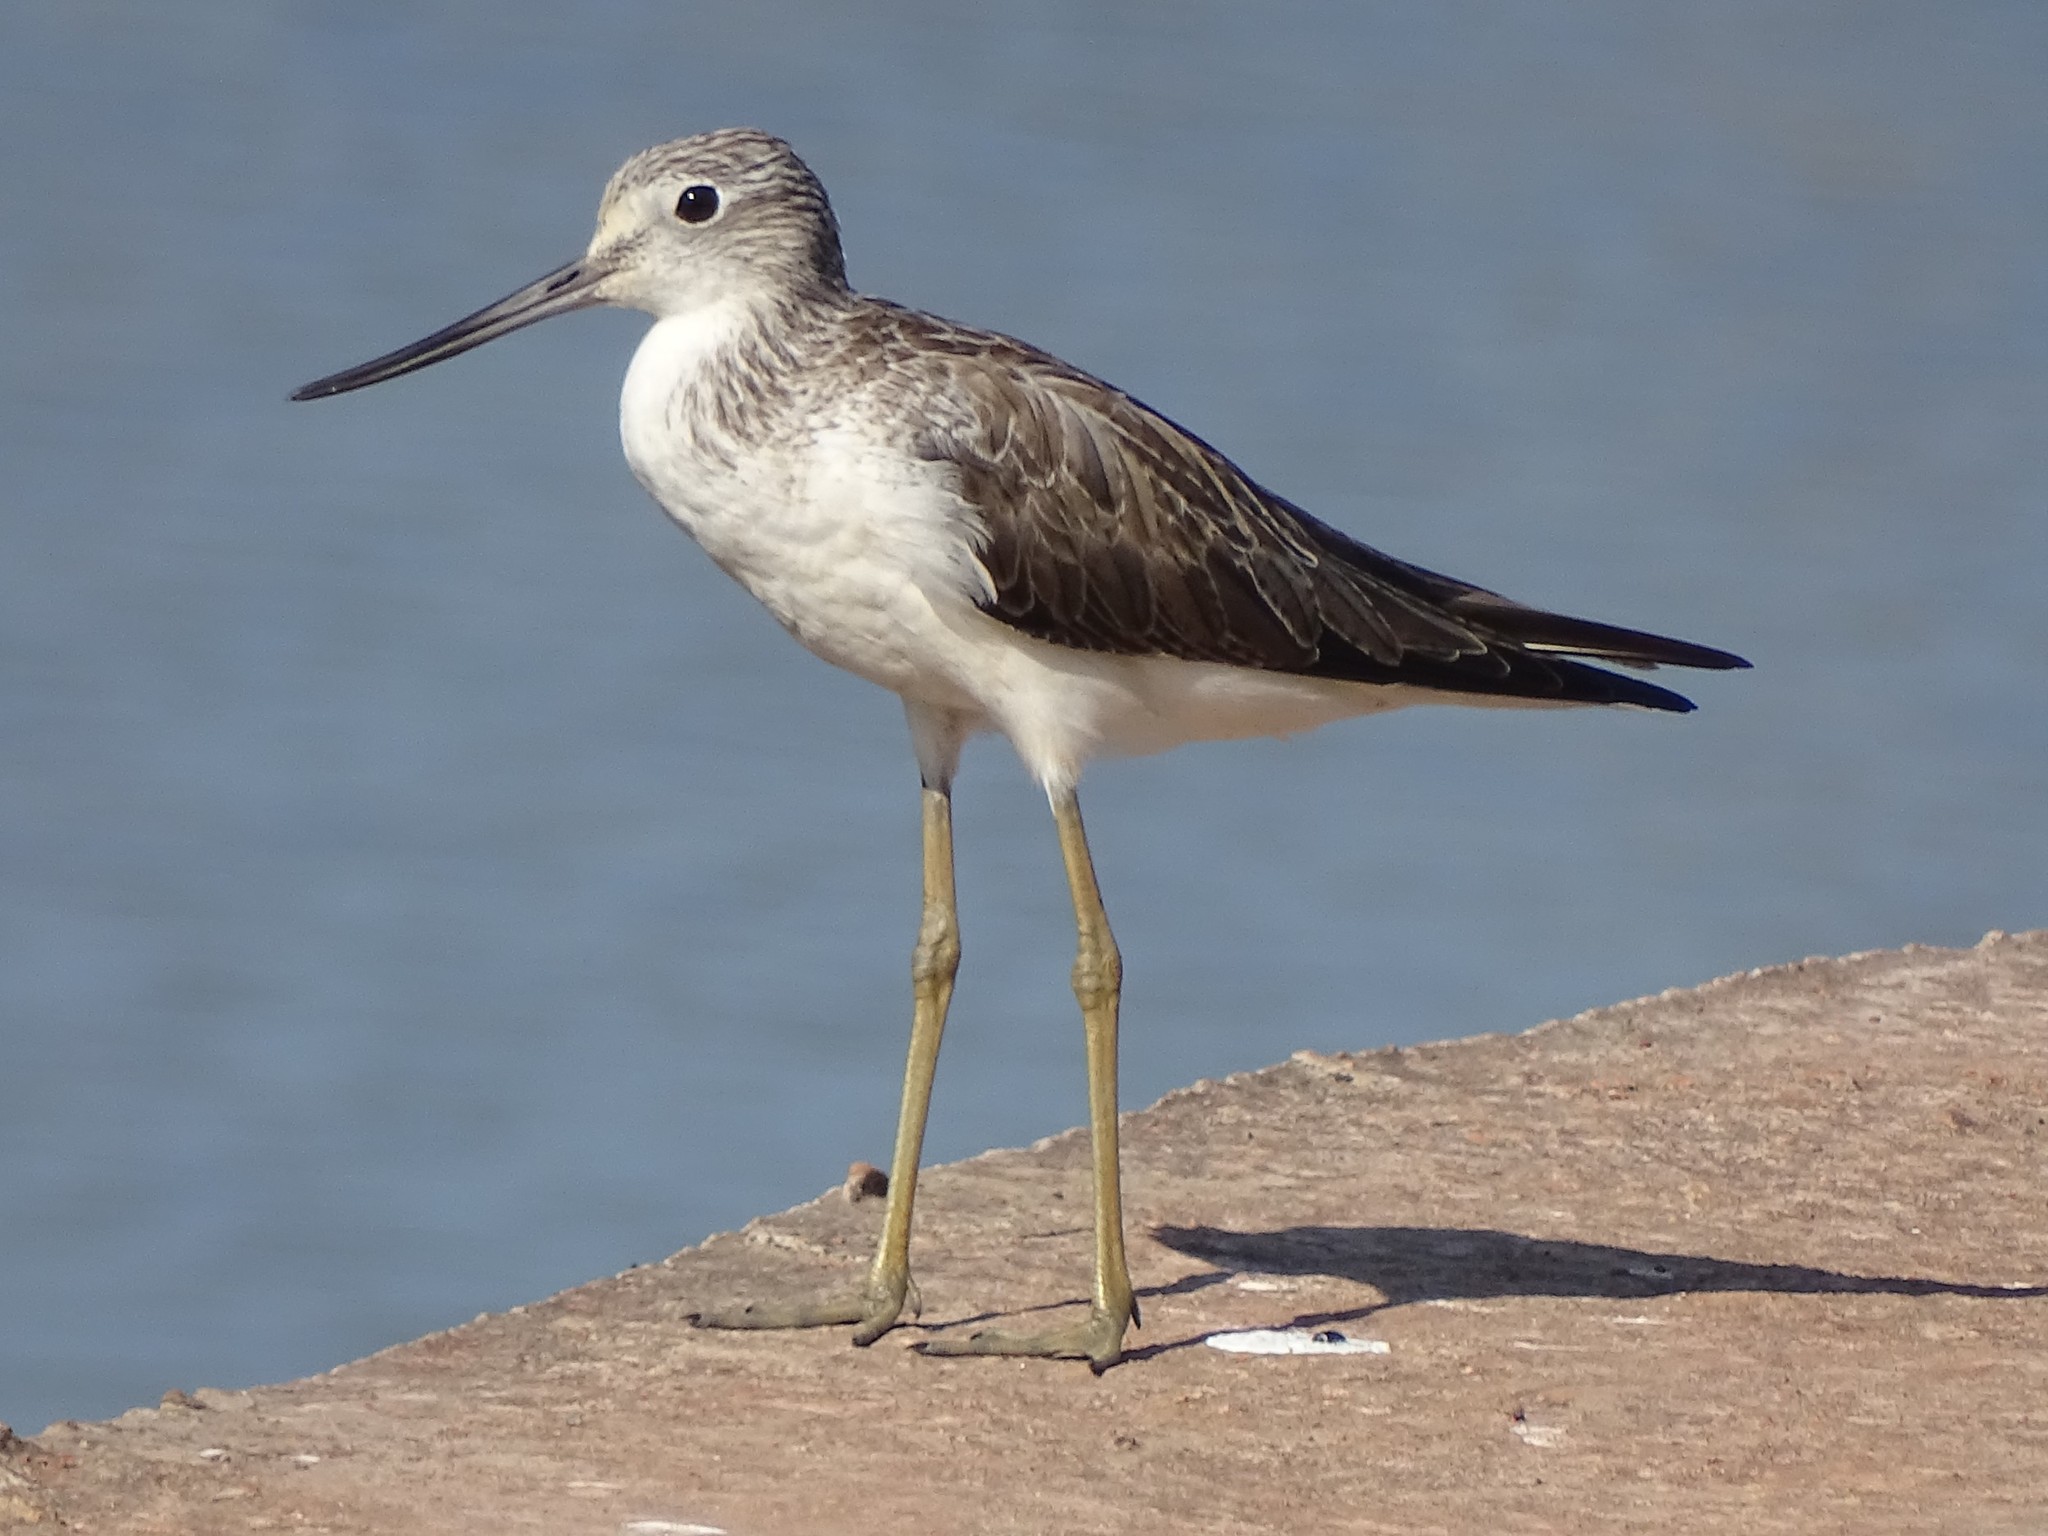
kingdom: Animalia
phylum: Chordata
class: Aves
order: Charadriiformes
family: Scolopacidae
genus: Tringa
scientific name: Tringa nebularia
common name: Common greenshank
